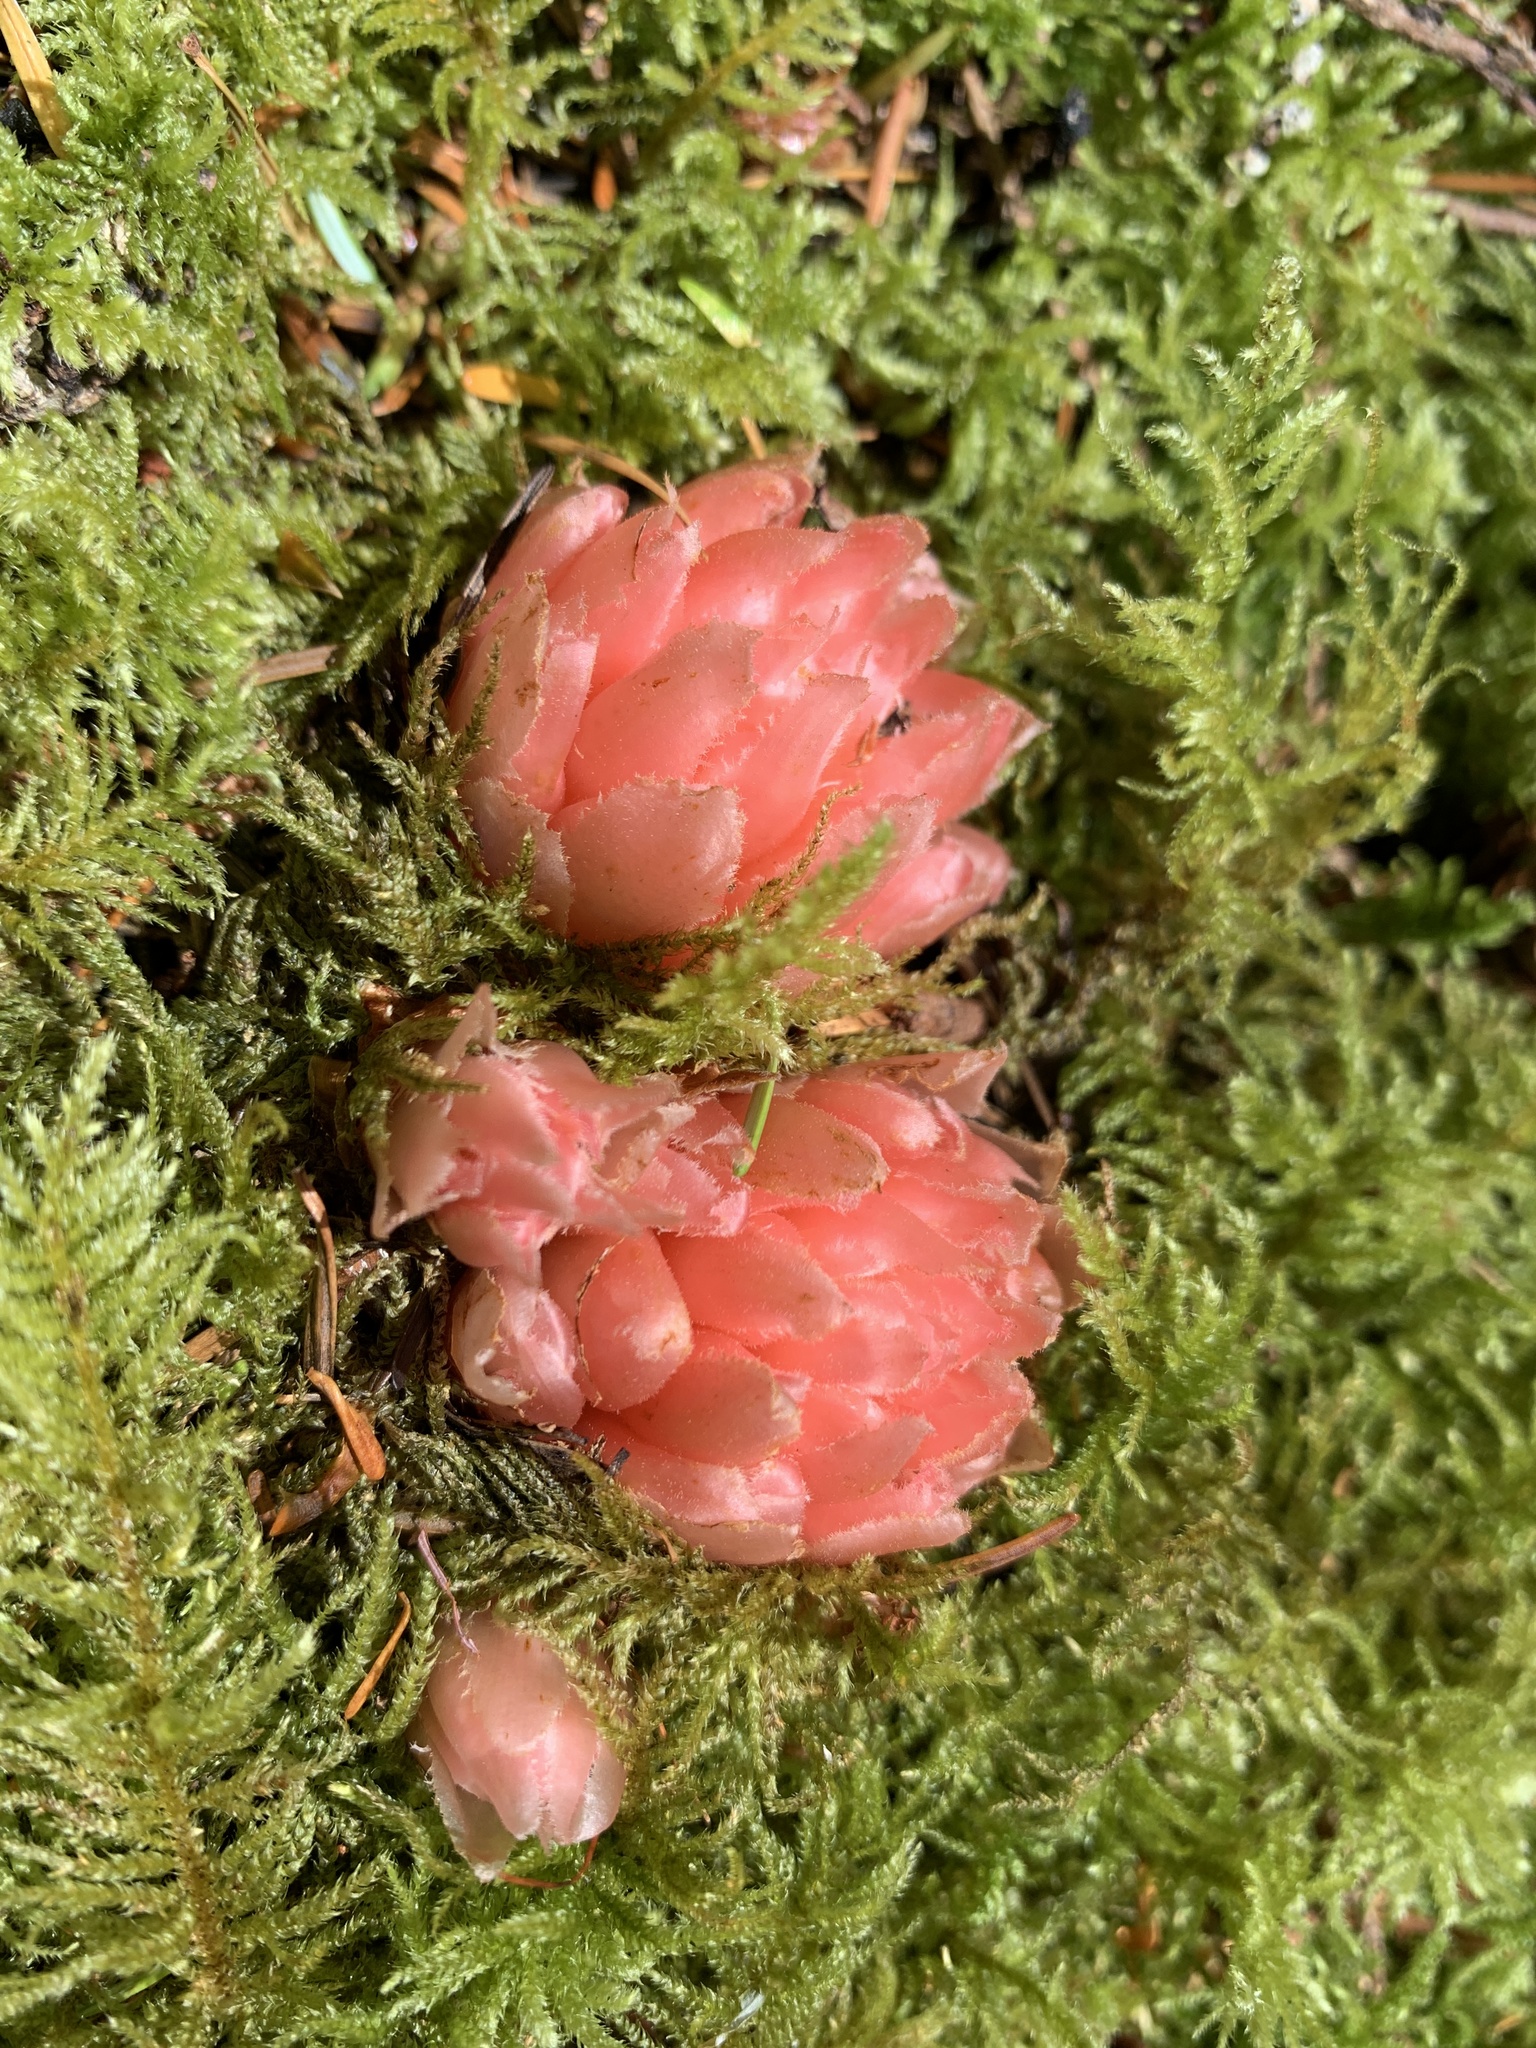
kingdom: Plantae
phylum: Tracheophyta
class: Magnoliopsida
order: Ericales
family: Ericaceae
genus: Hemitomes
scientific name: Hemitomes congestum
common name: Cone plant
